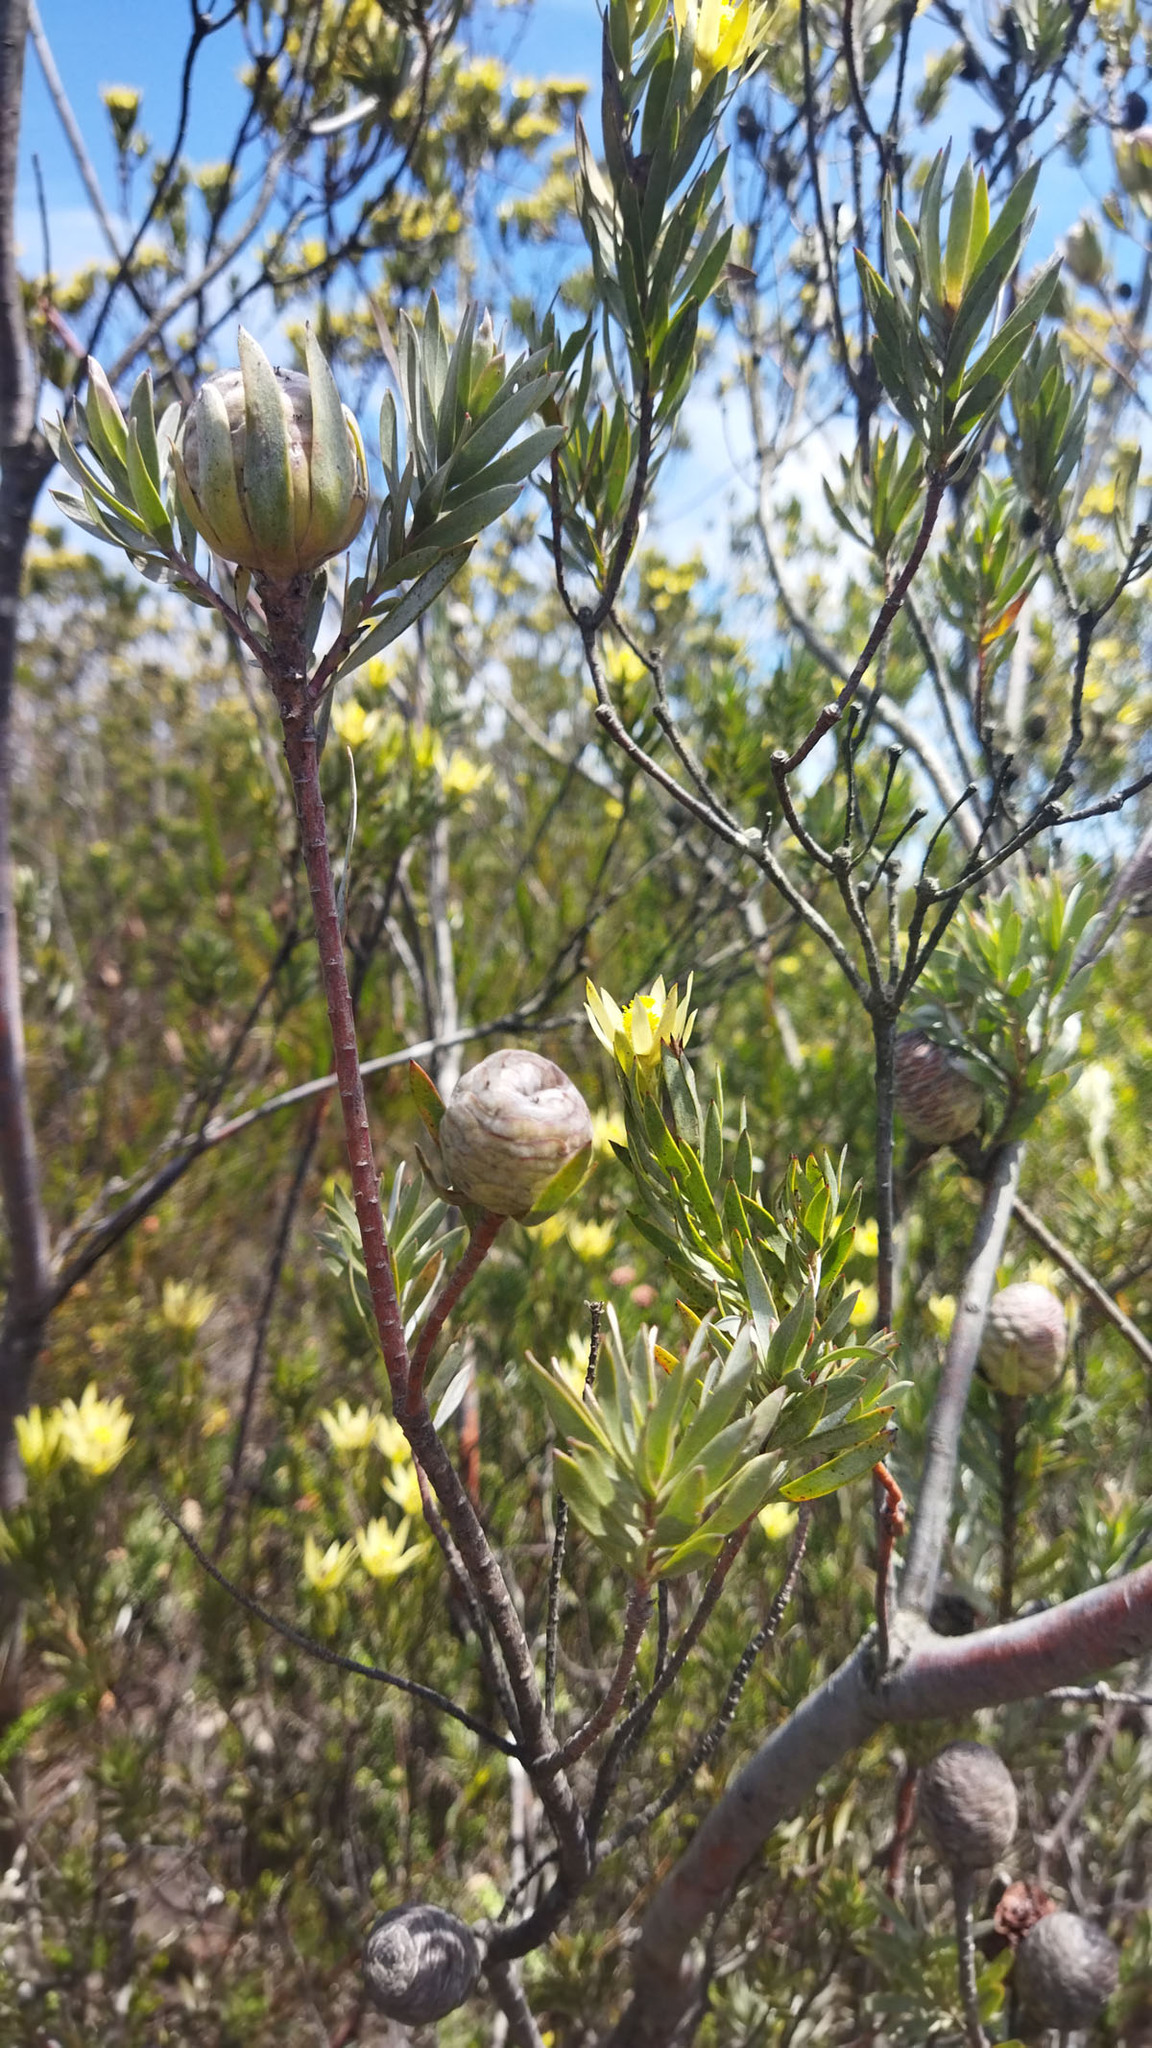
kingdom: Plantae
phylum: Tracheophyta
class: Magnoliopsida
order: Proteales
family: Proteaceae
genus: Leucadendron
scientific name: Leucadendron uliginosum
